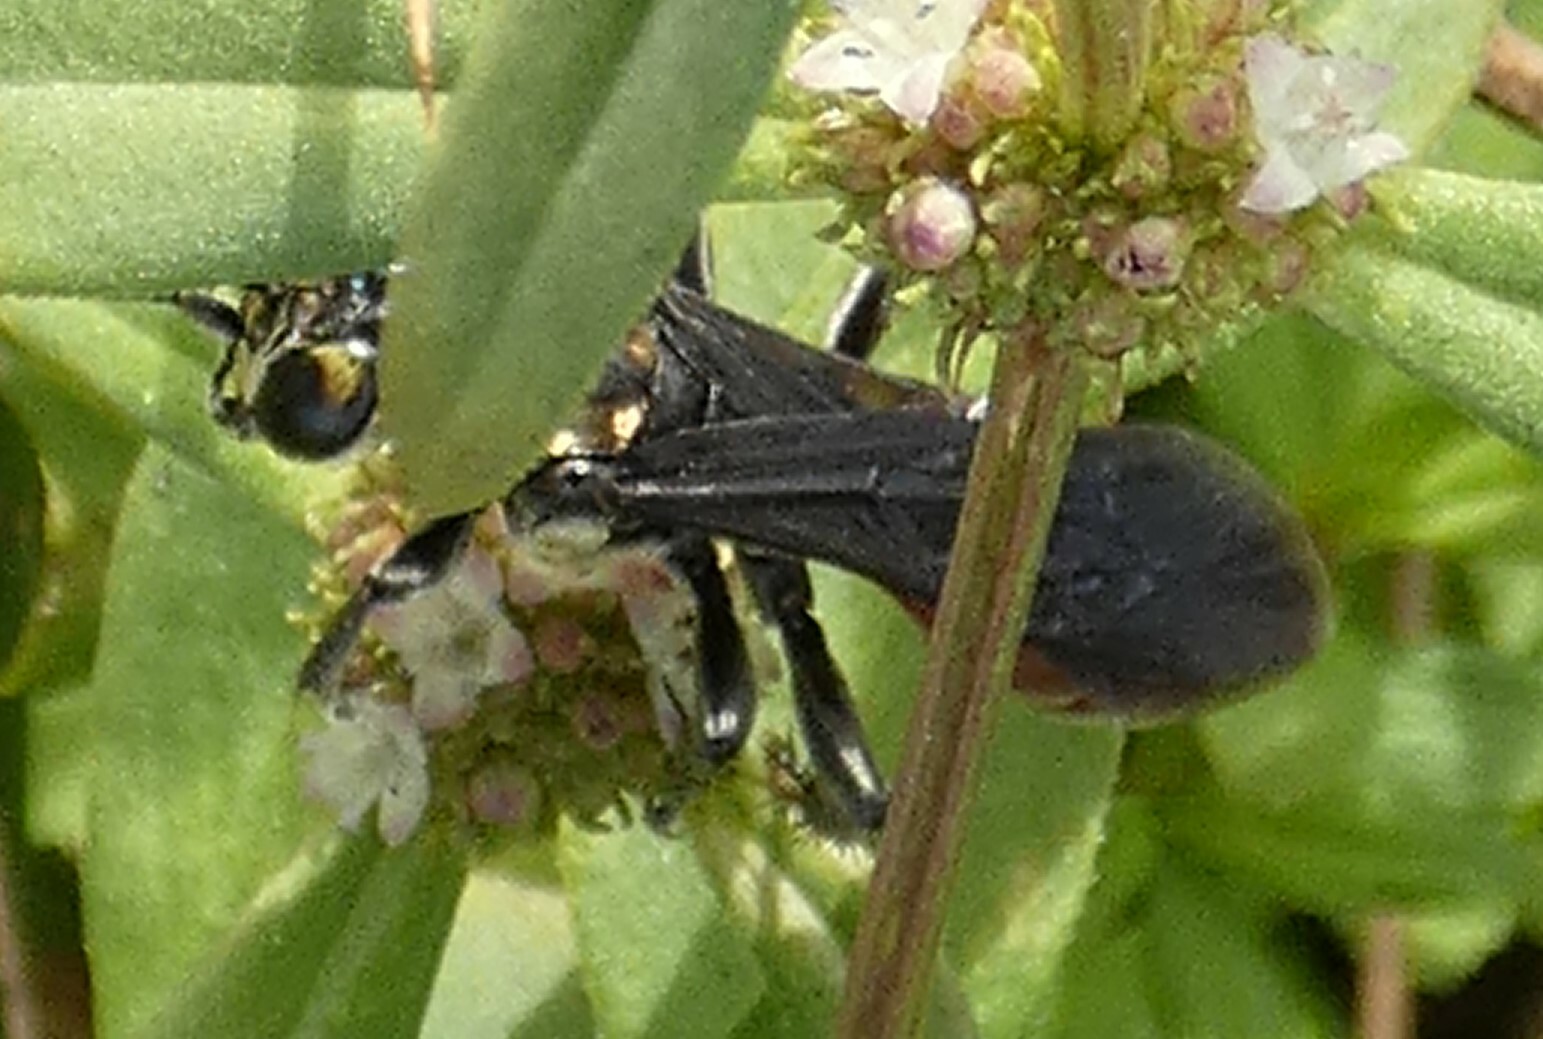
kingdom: Animalia
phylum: Arthropoda
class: Insecta
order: Hymenoptera
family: Crabronidae
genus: Larra
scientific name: Larra bicolor
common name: Wasp
